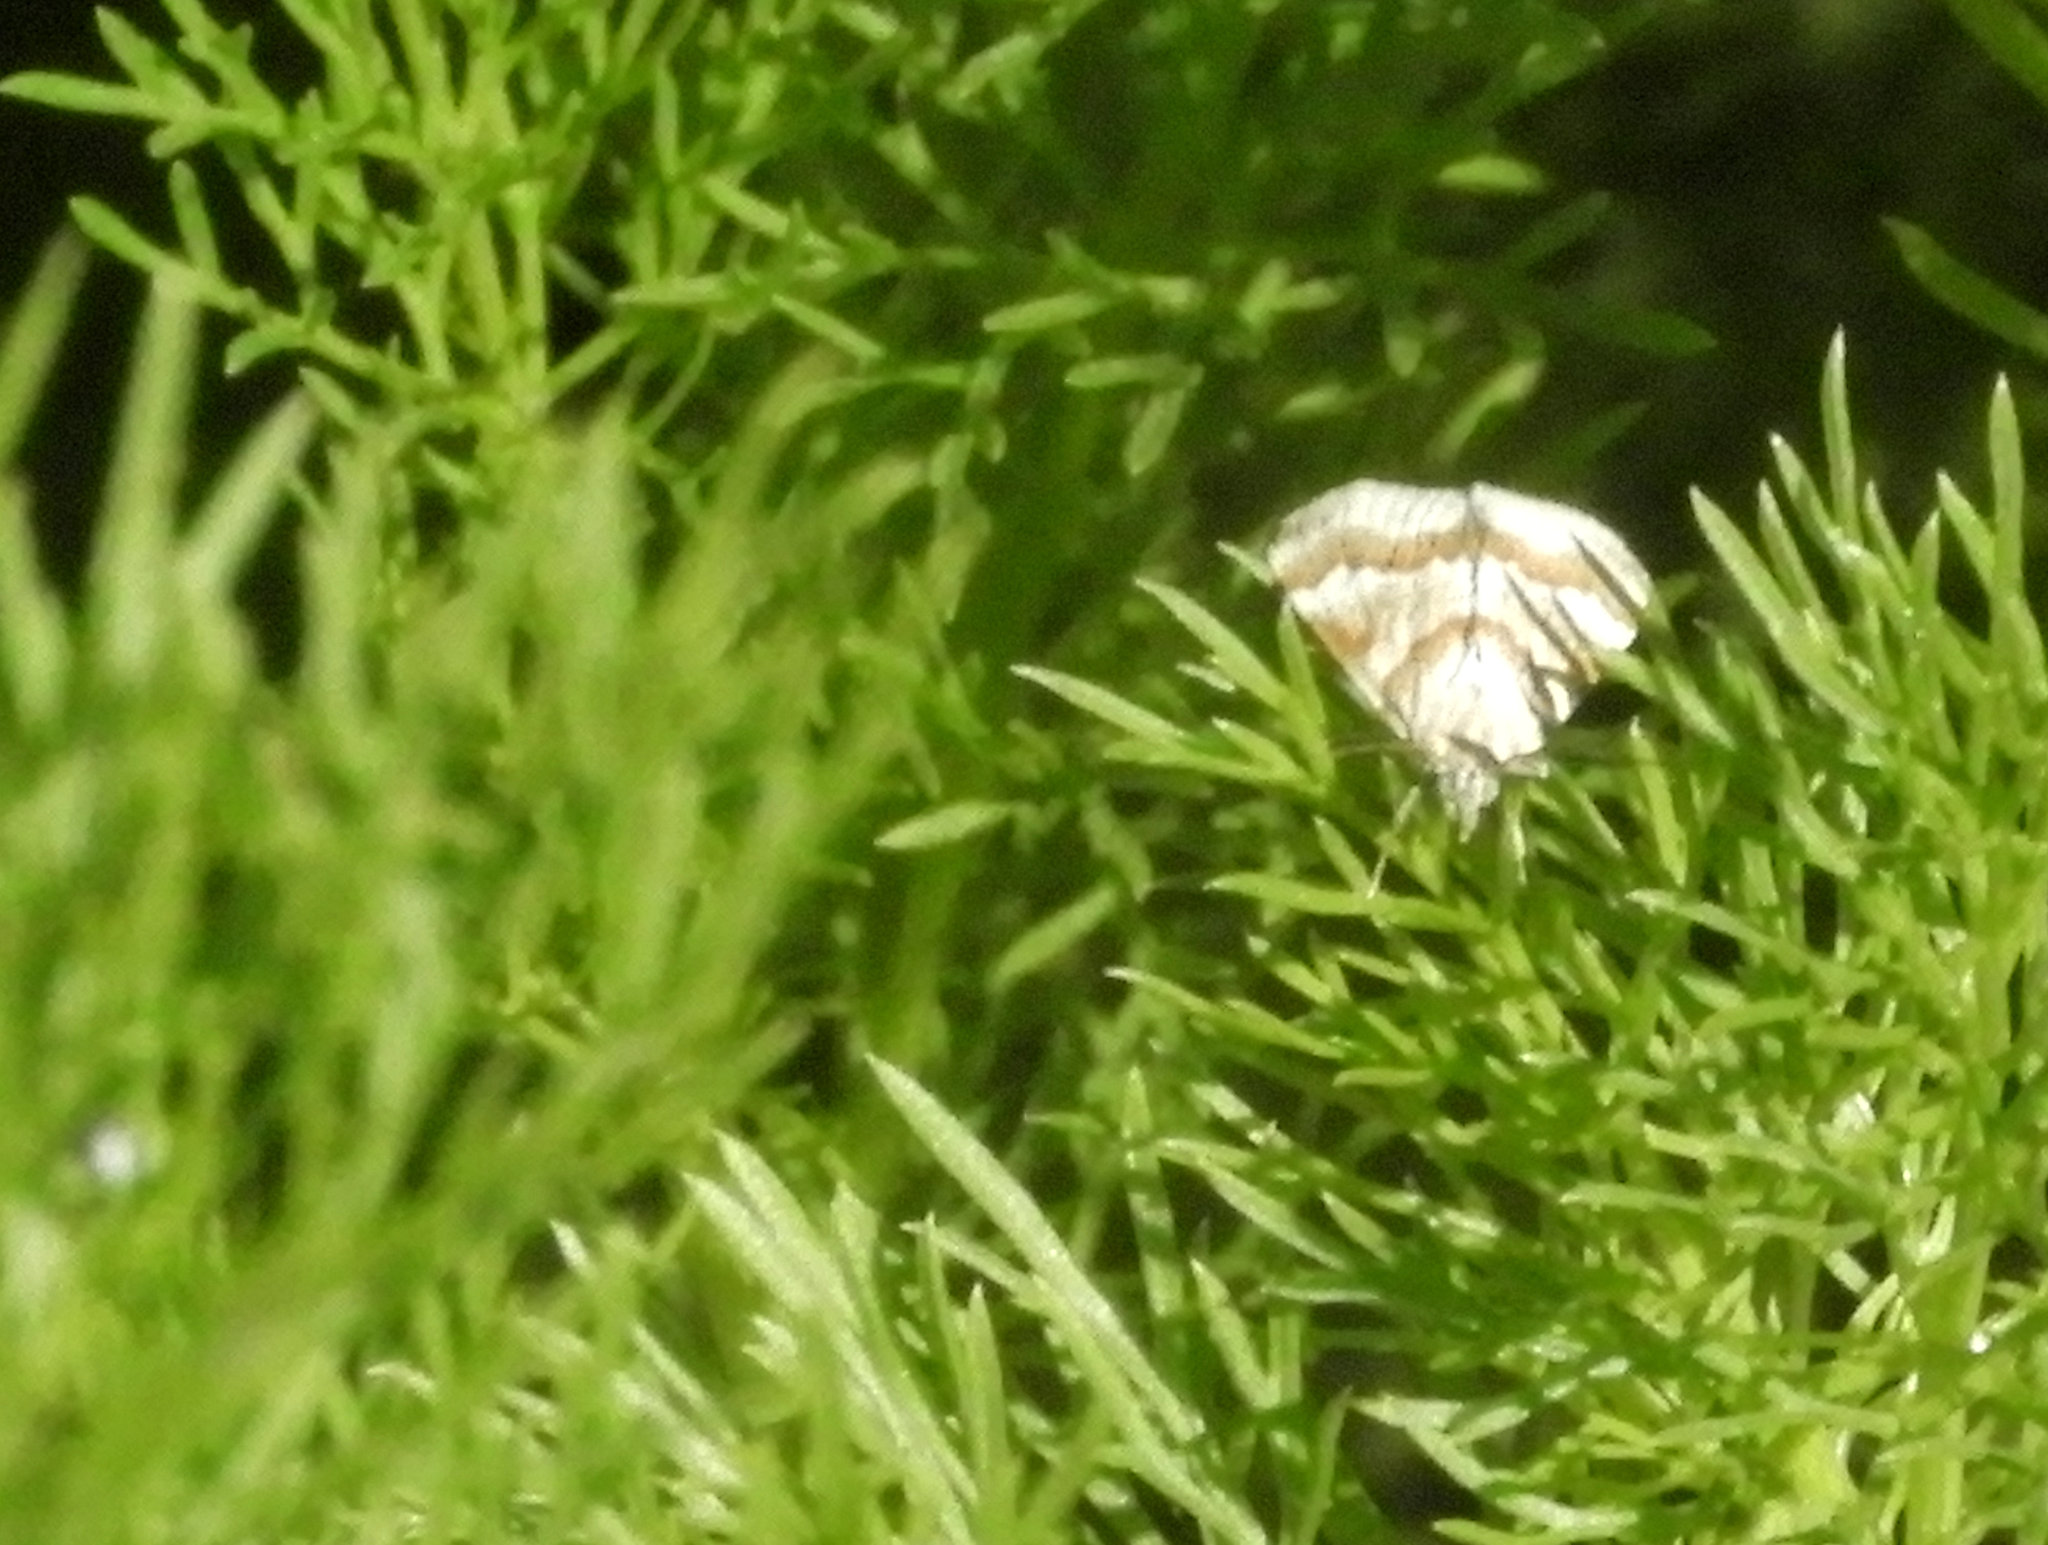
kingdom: Animalia
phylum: Arthropoda
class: Insecta
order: Lepidoptera
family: Crambidae
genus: Noctuelia
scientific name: Noctuelia Mimoschinia rufofascialis
